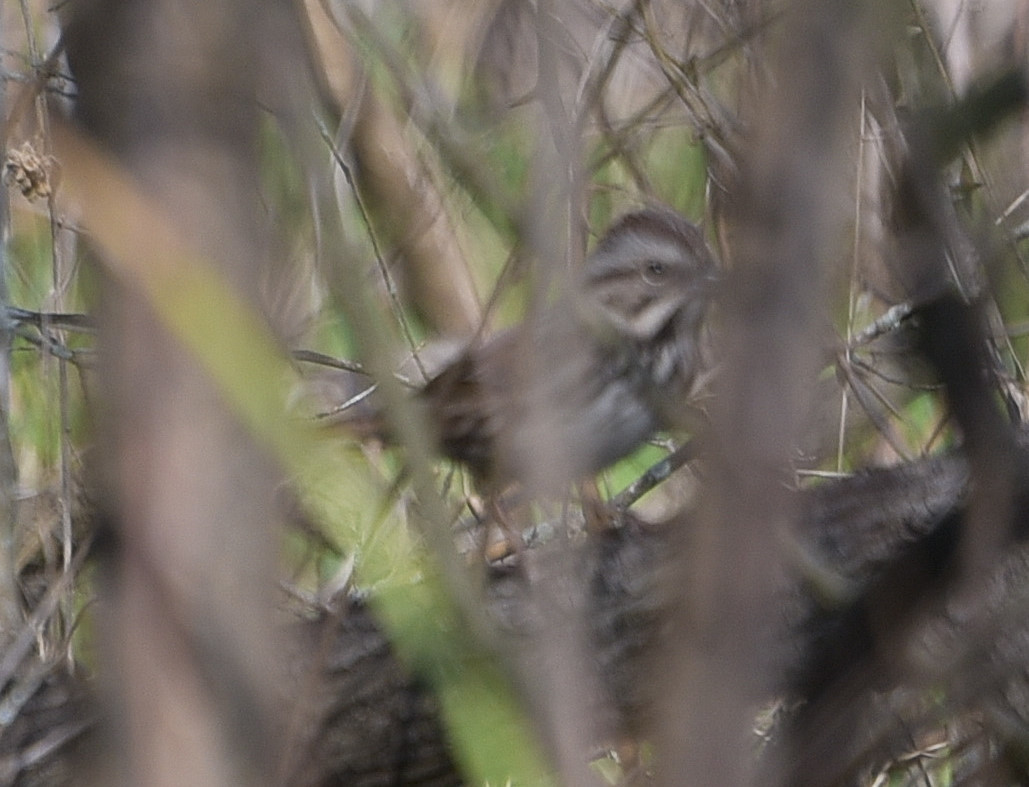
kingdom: Animalia
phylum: Chordata
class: Aves
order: Passeriformes
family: Passerellidae
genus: Melospiza
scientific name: Melospiza melodia
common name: Song sparrow
